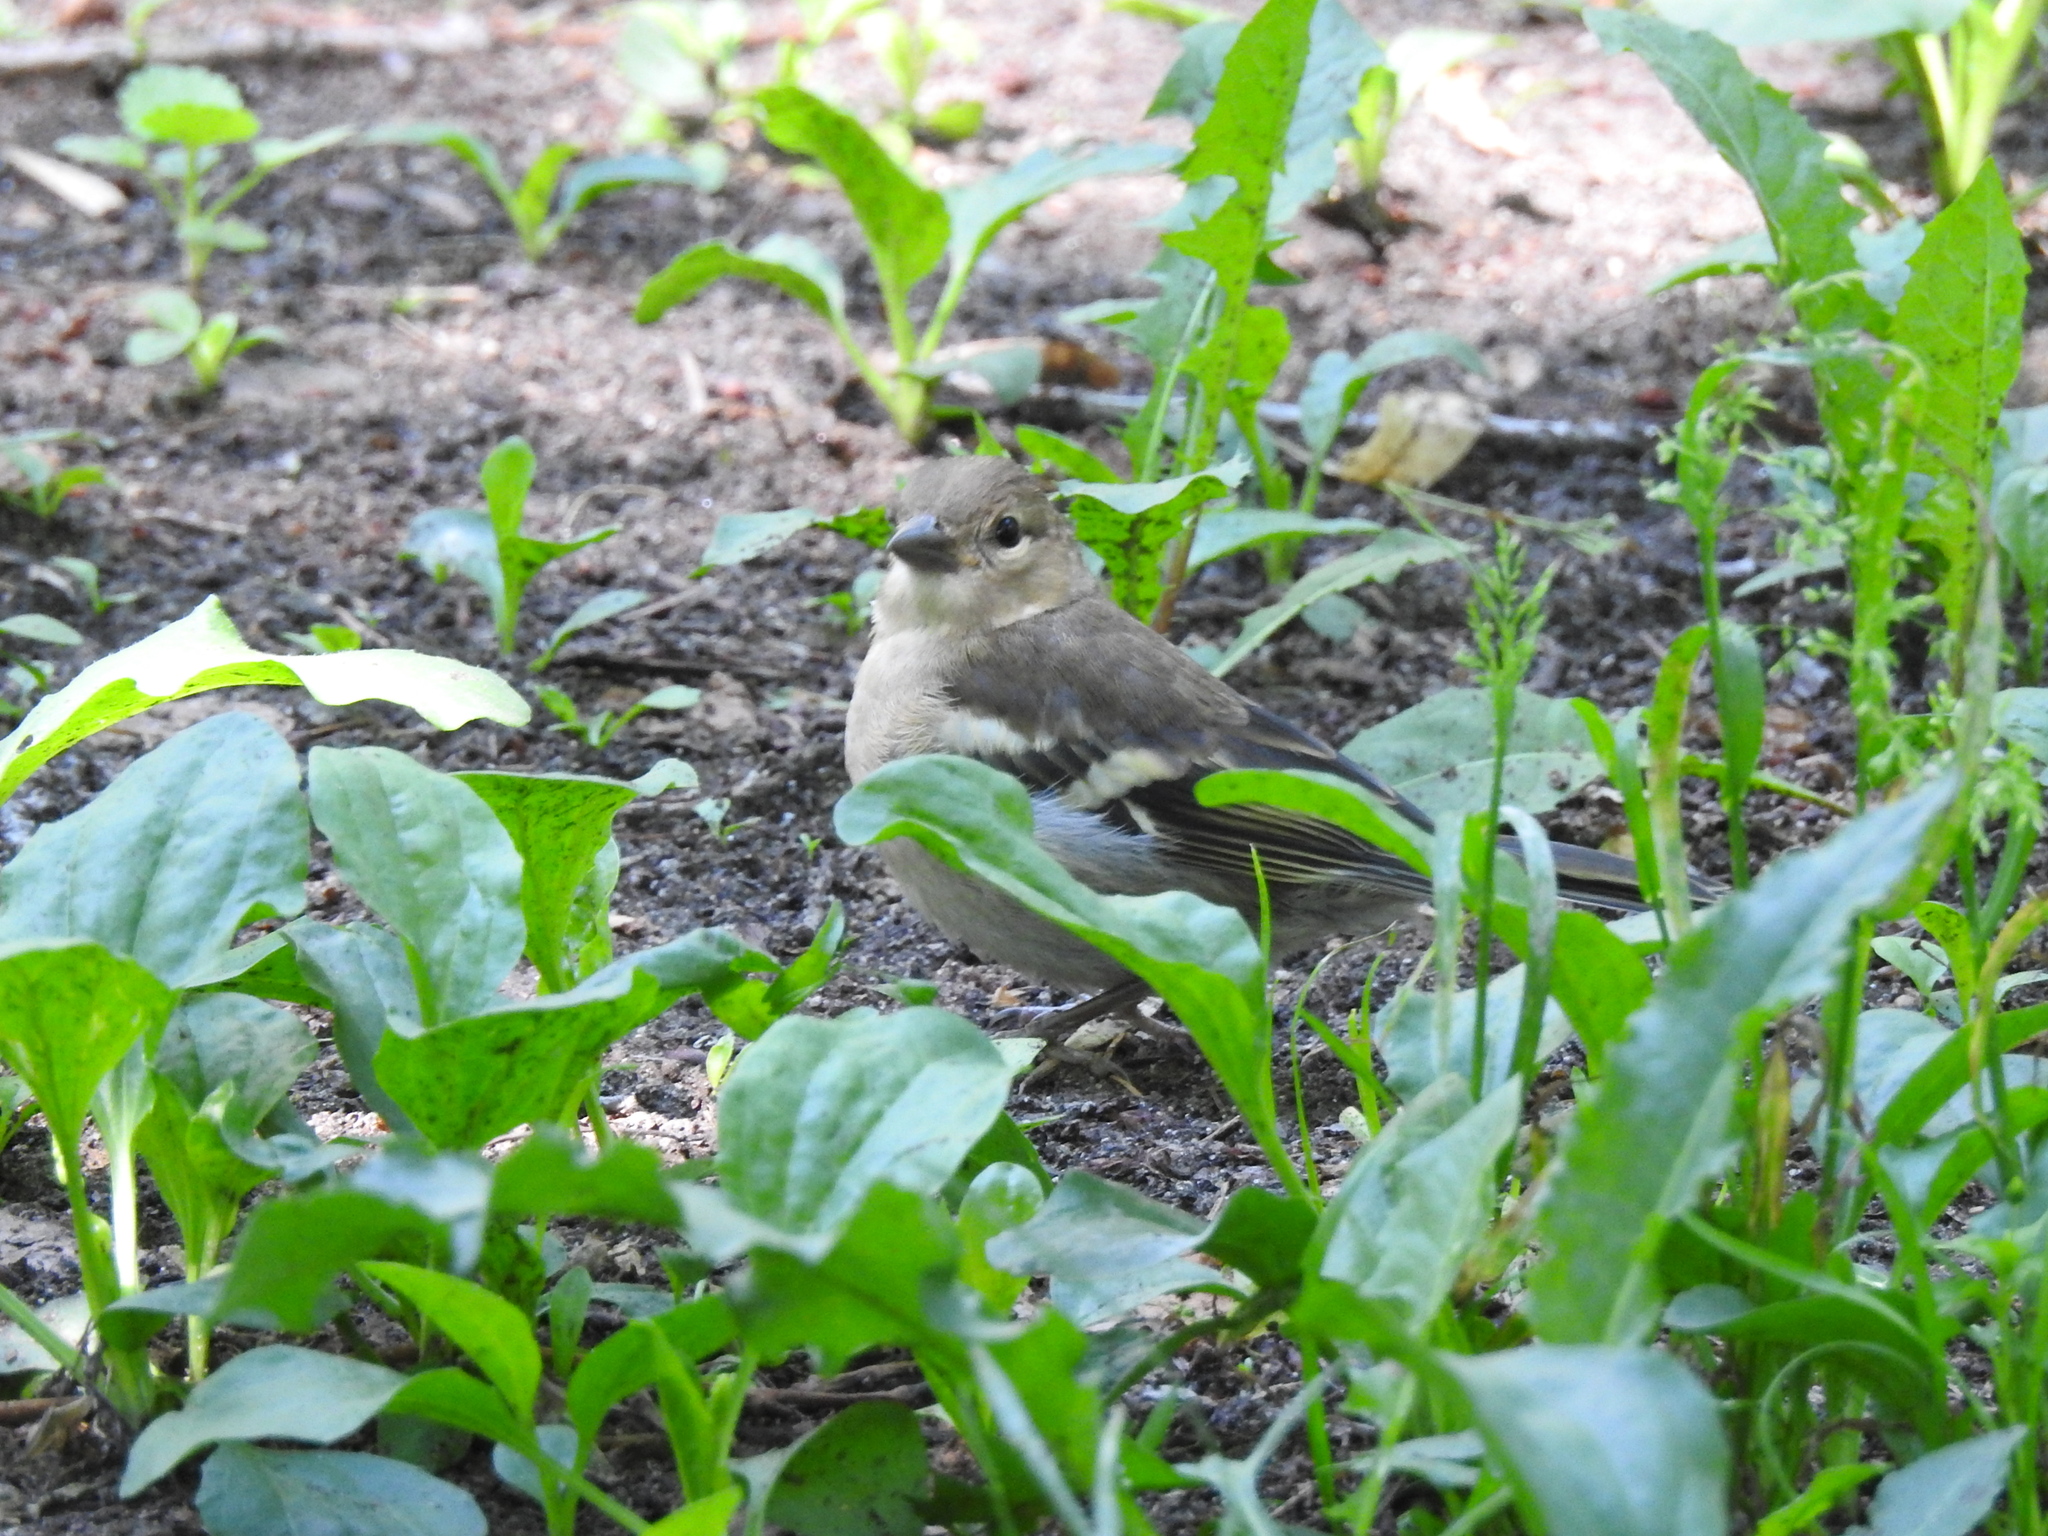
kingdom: Animalia
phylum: Chordata
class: Aves
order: Passeriformes
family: Fringillidae
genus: Fringilla
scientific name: Fringilla coelebs
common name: Common chaffinch
